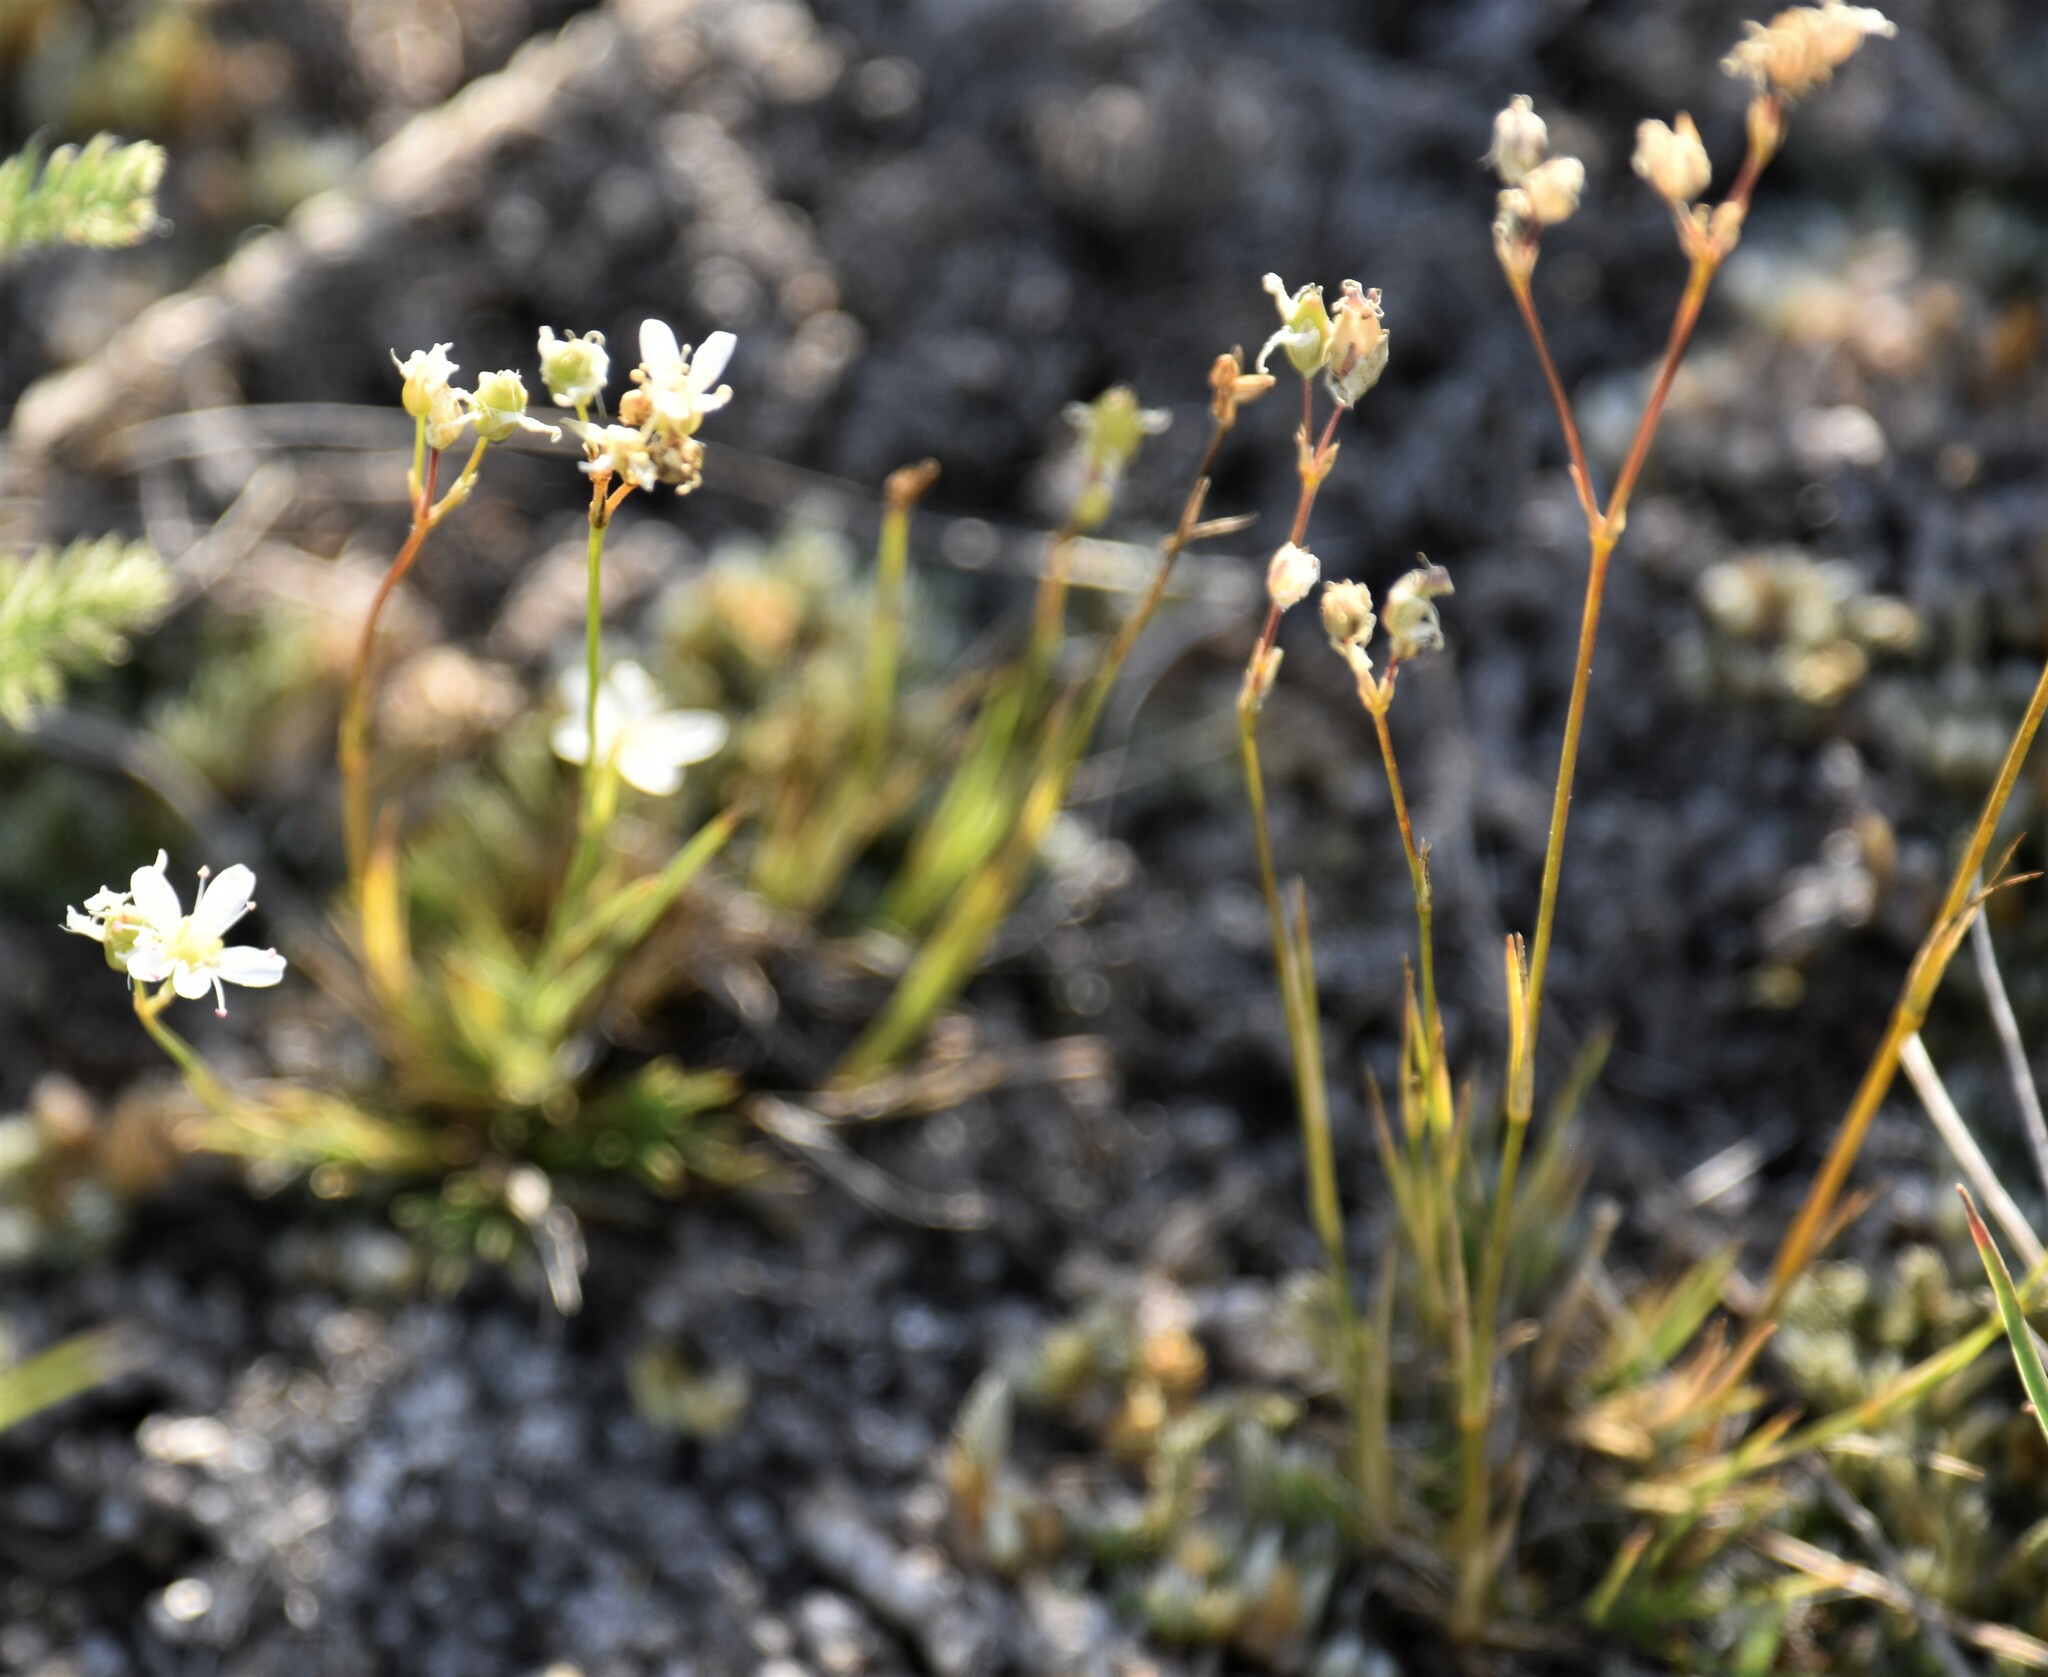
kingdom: Plantae
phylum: Tracheophyta
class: Magnoliopsida
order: Caryophyllales
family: Caryophyllaceae
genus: Eremogone
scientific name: Eremogone congesta
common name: Ballhead sandwort
